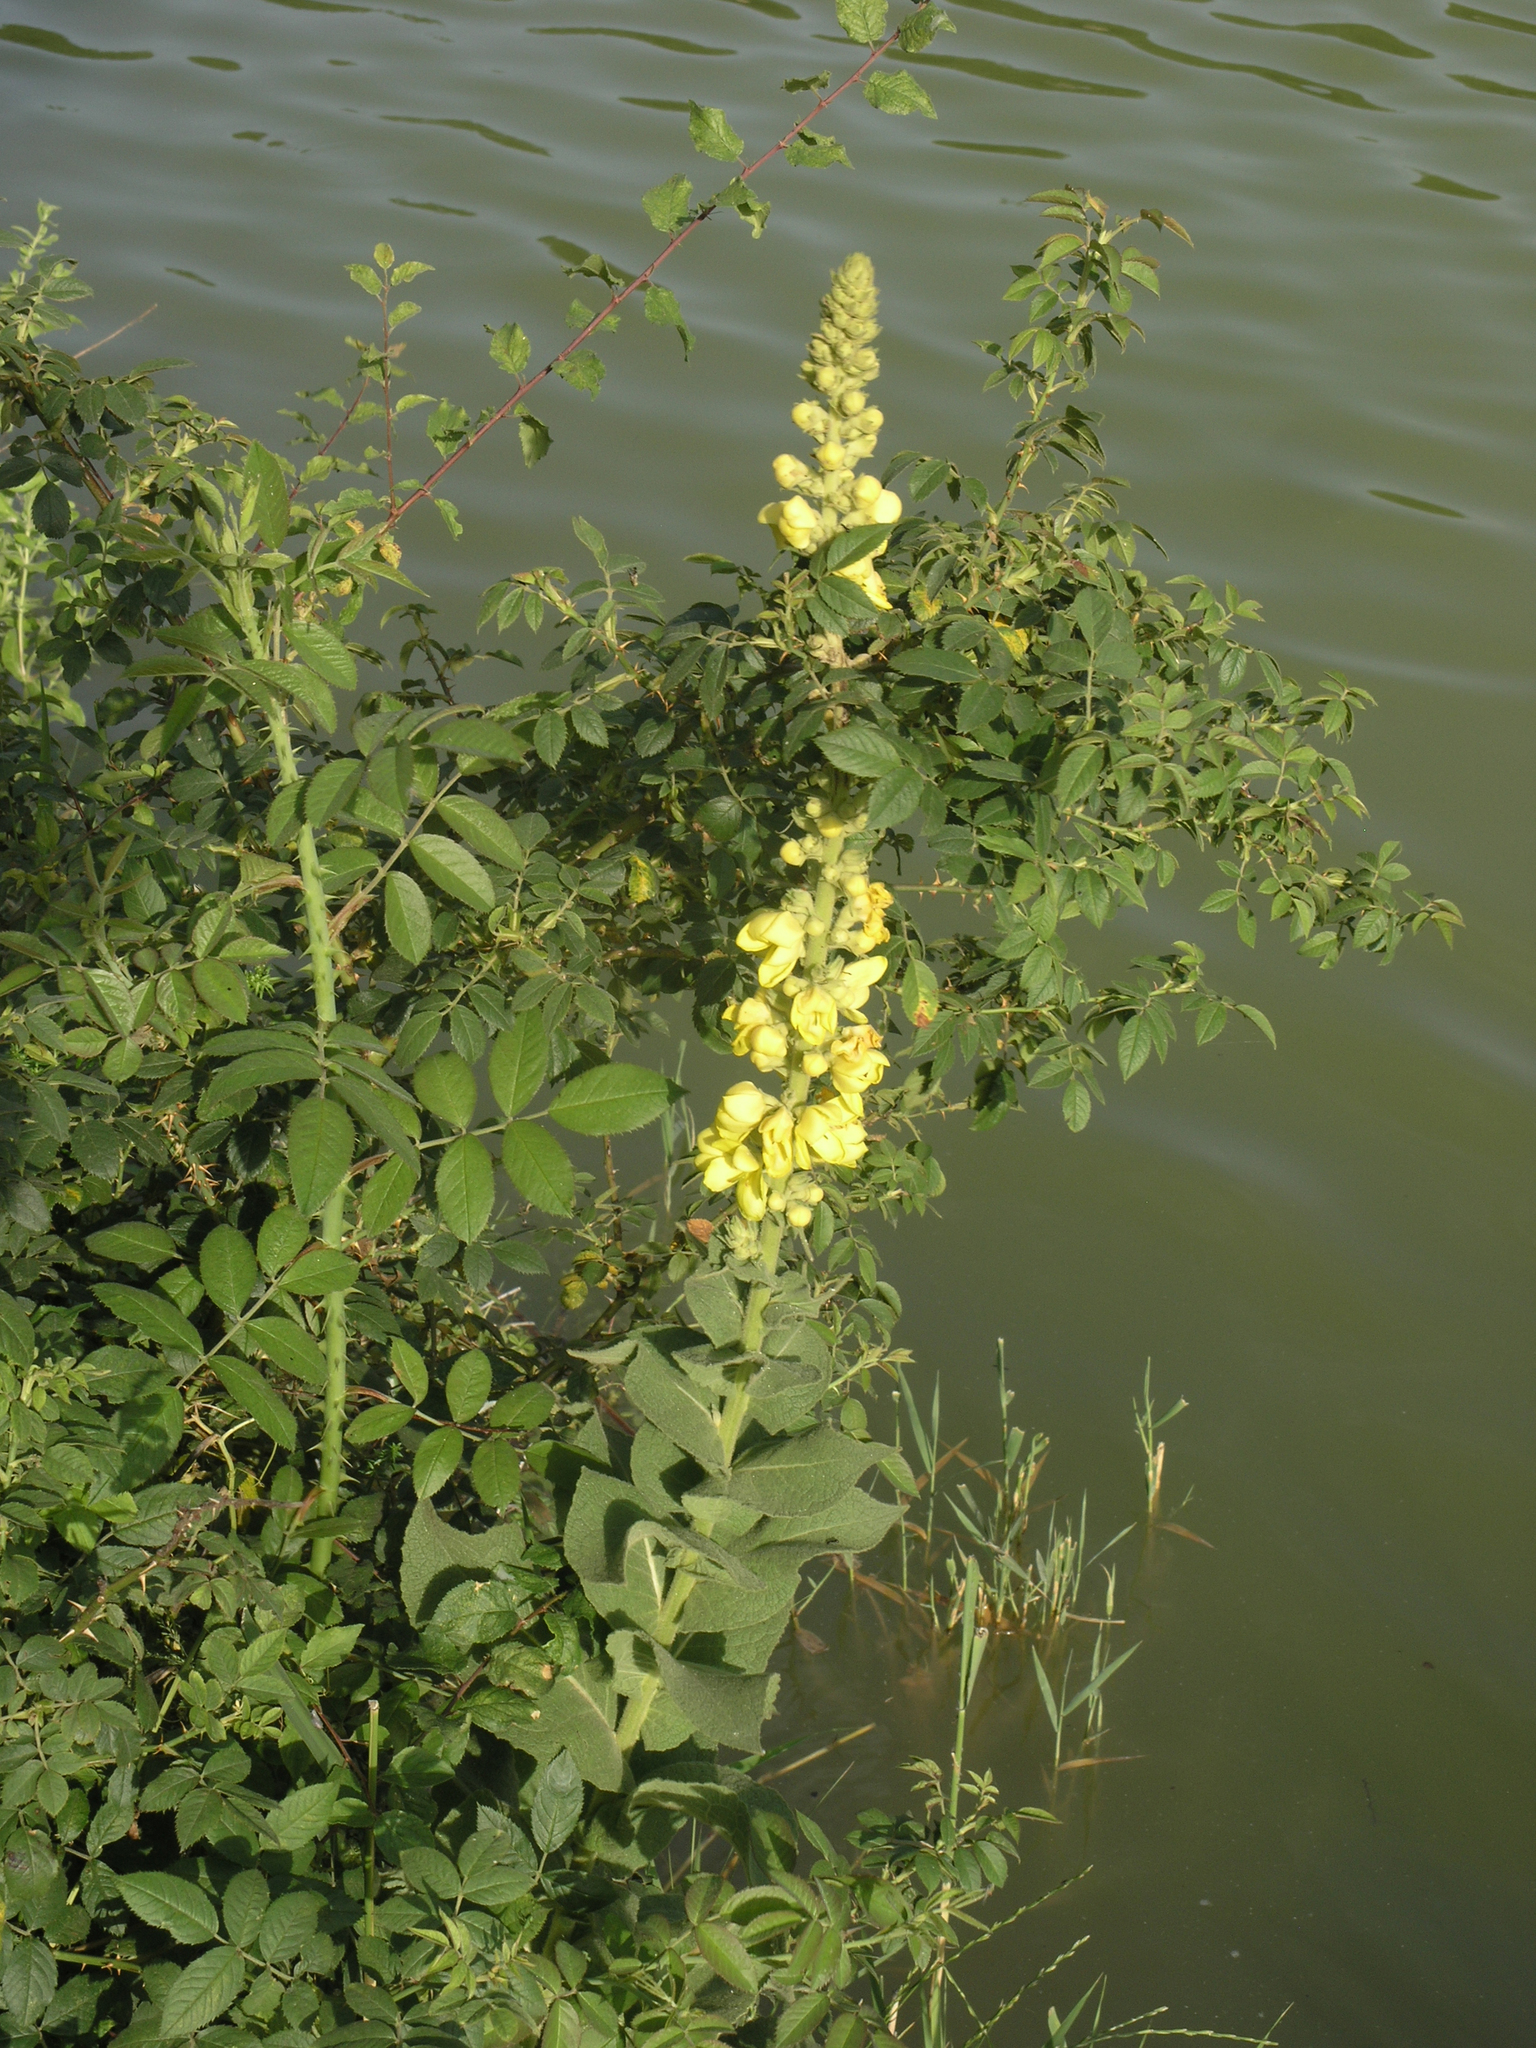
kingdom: Plantae
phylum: Tracheophyta
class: Magnoliopsida
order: Lamiales
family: Scrophulariaceae
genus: Verbascum
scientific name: Verbascum phlomoides
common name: Orange mullein
